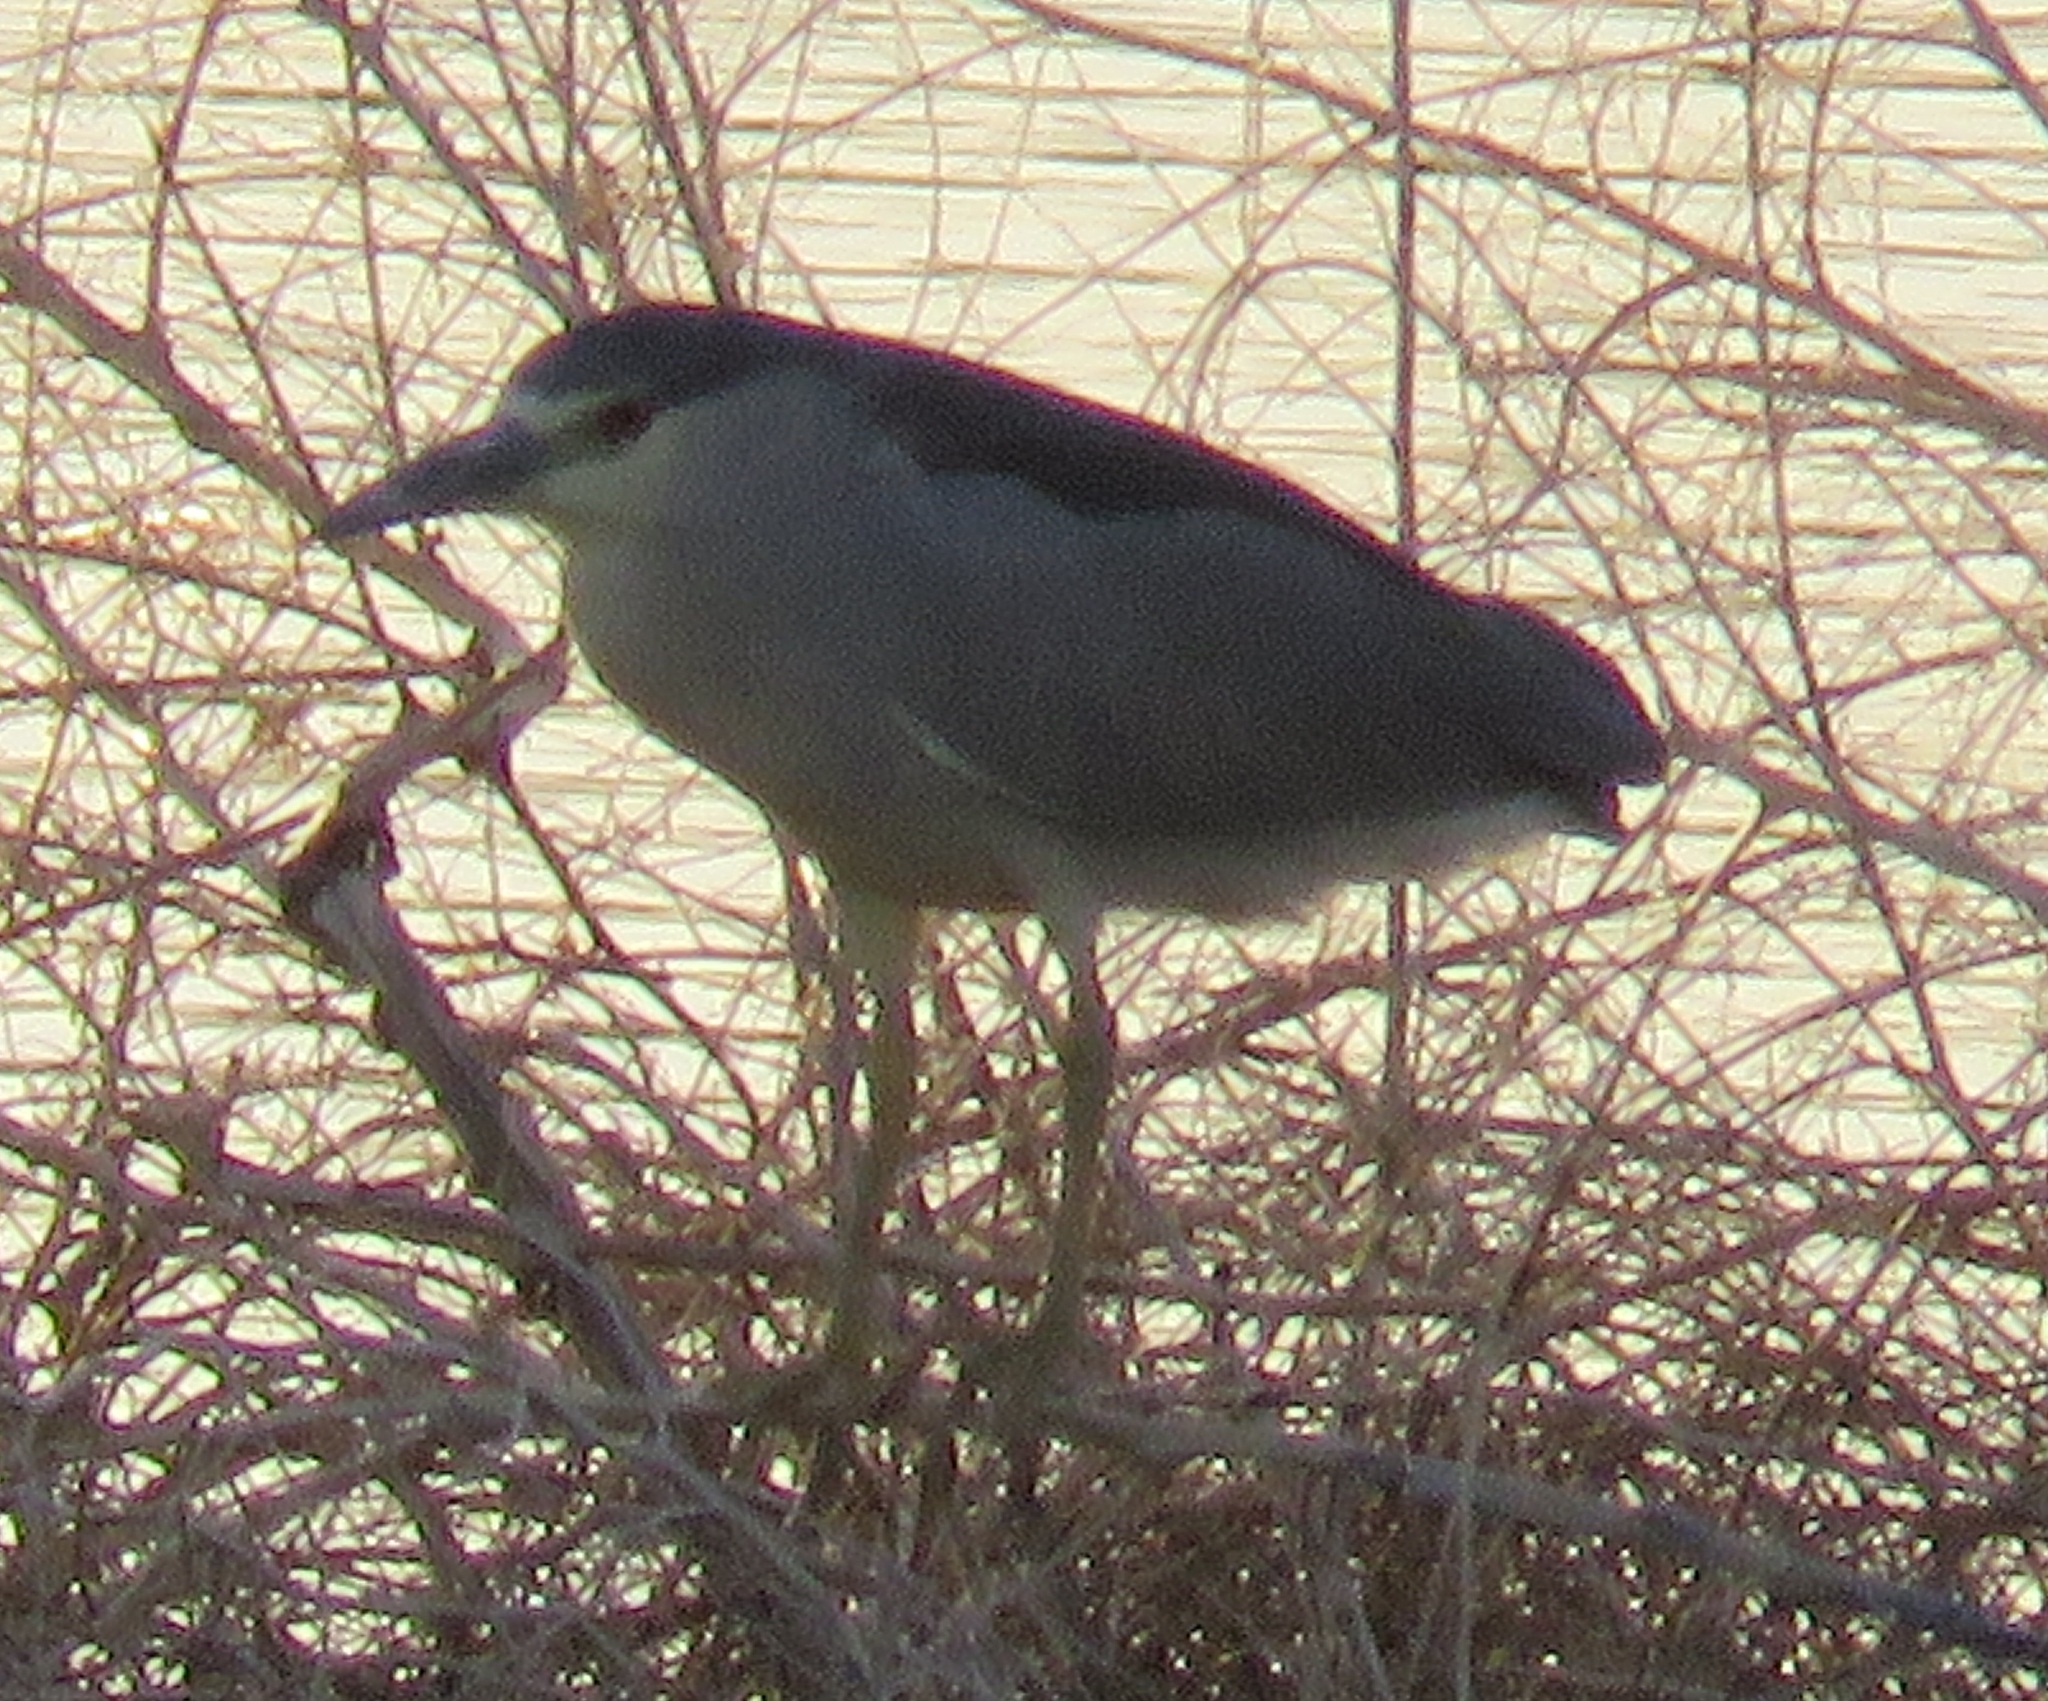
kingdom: Animalia
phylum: Chordata
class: Aves
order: Pelecaniformes
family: Ardeidae
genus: Nycticorax
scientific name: Nycticorax nycticorax
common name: Black-crowned night heron
